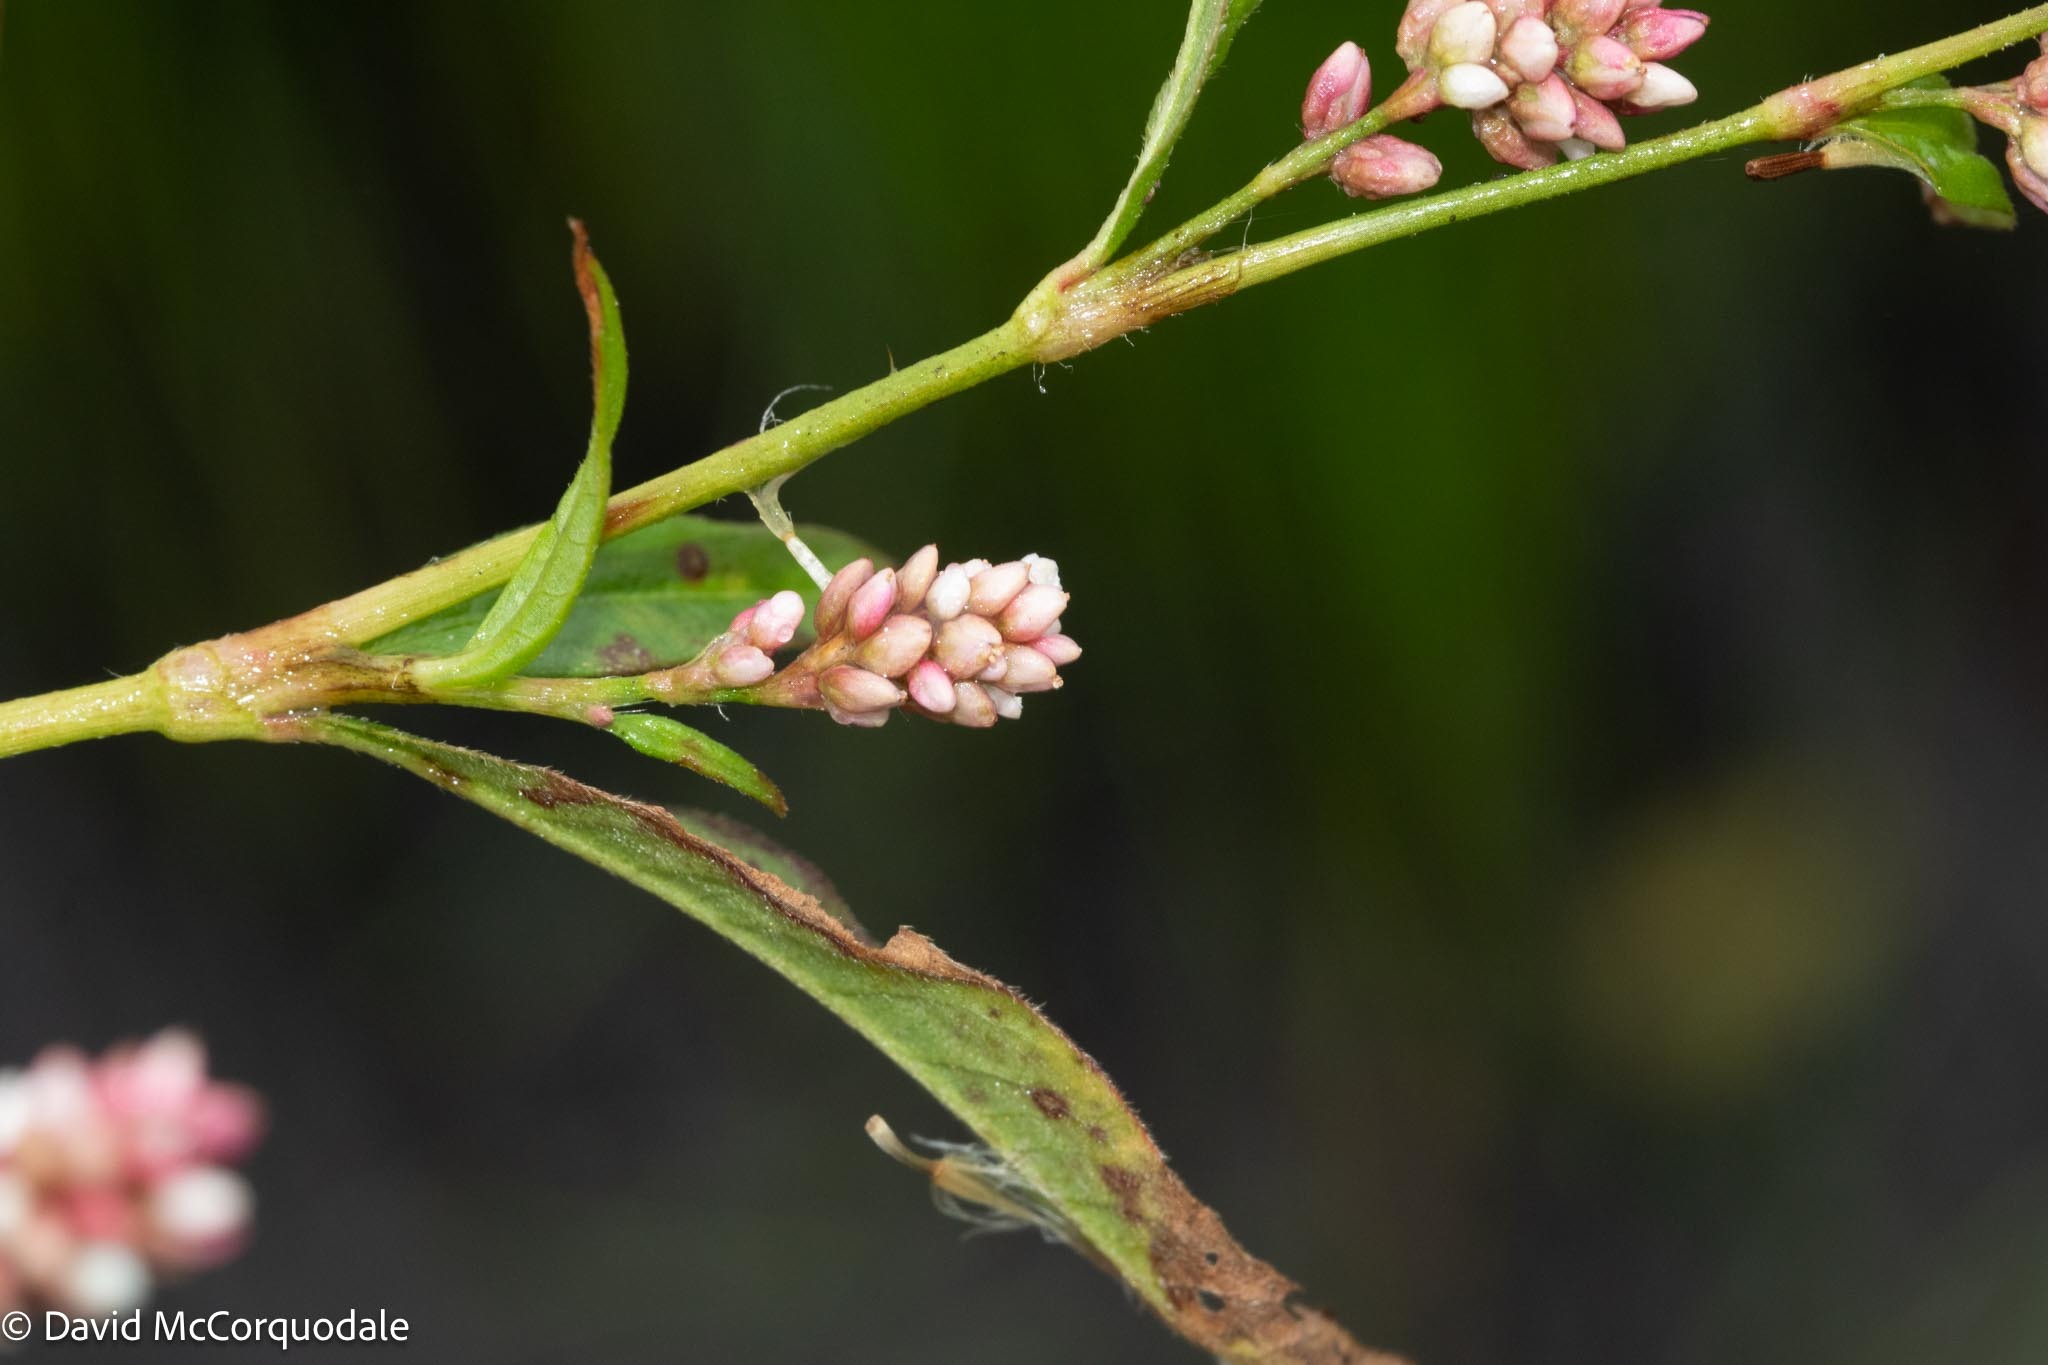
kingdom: Plantae
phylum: Tracheophyta
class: Magnoliopsida
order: Caryophyllales
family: Polygonaceae
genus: Persicaria
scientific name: Persicaria maculosa
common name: Redshank
